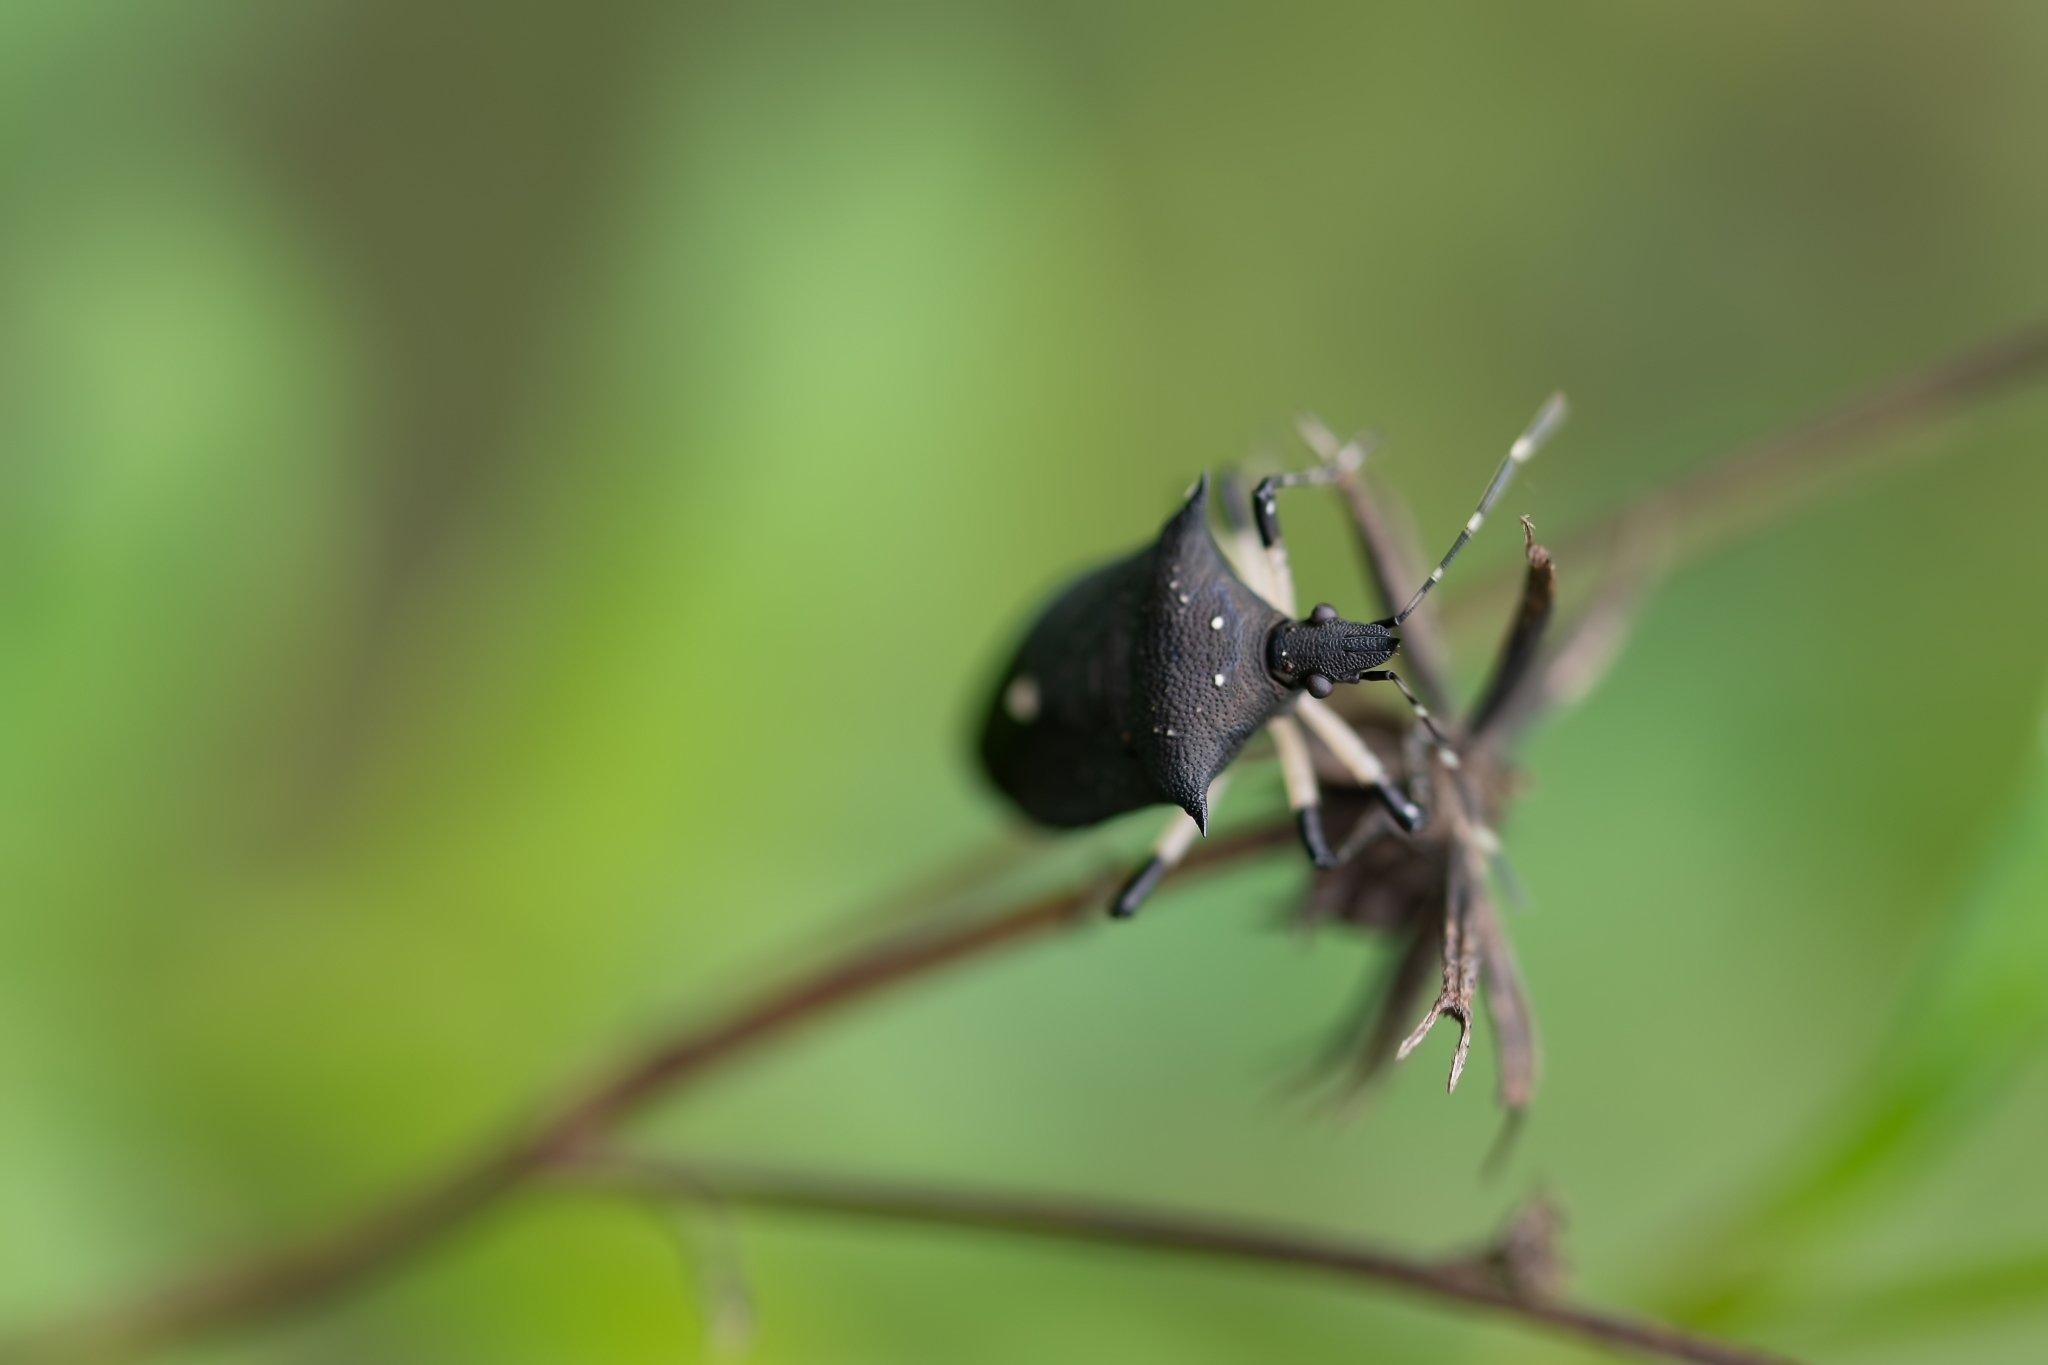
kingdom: Animalia
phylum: Arthropoda
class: Insecta
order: Hemiptera
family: Pentatomidae
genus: Proxys
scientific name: Proxys punctulatus
